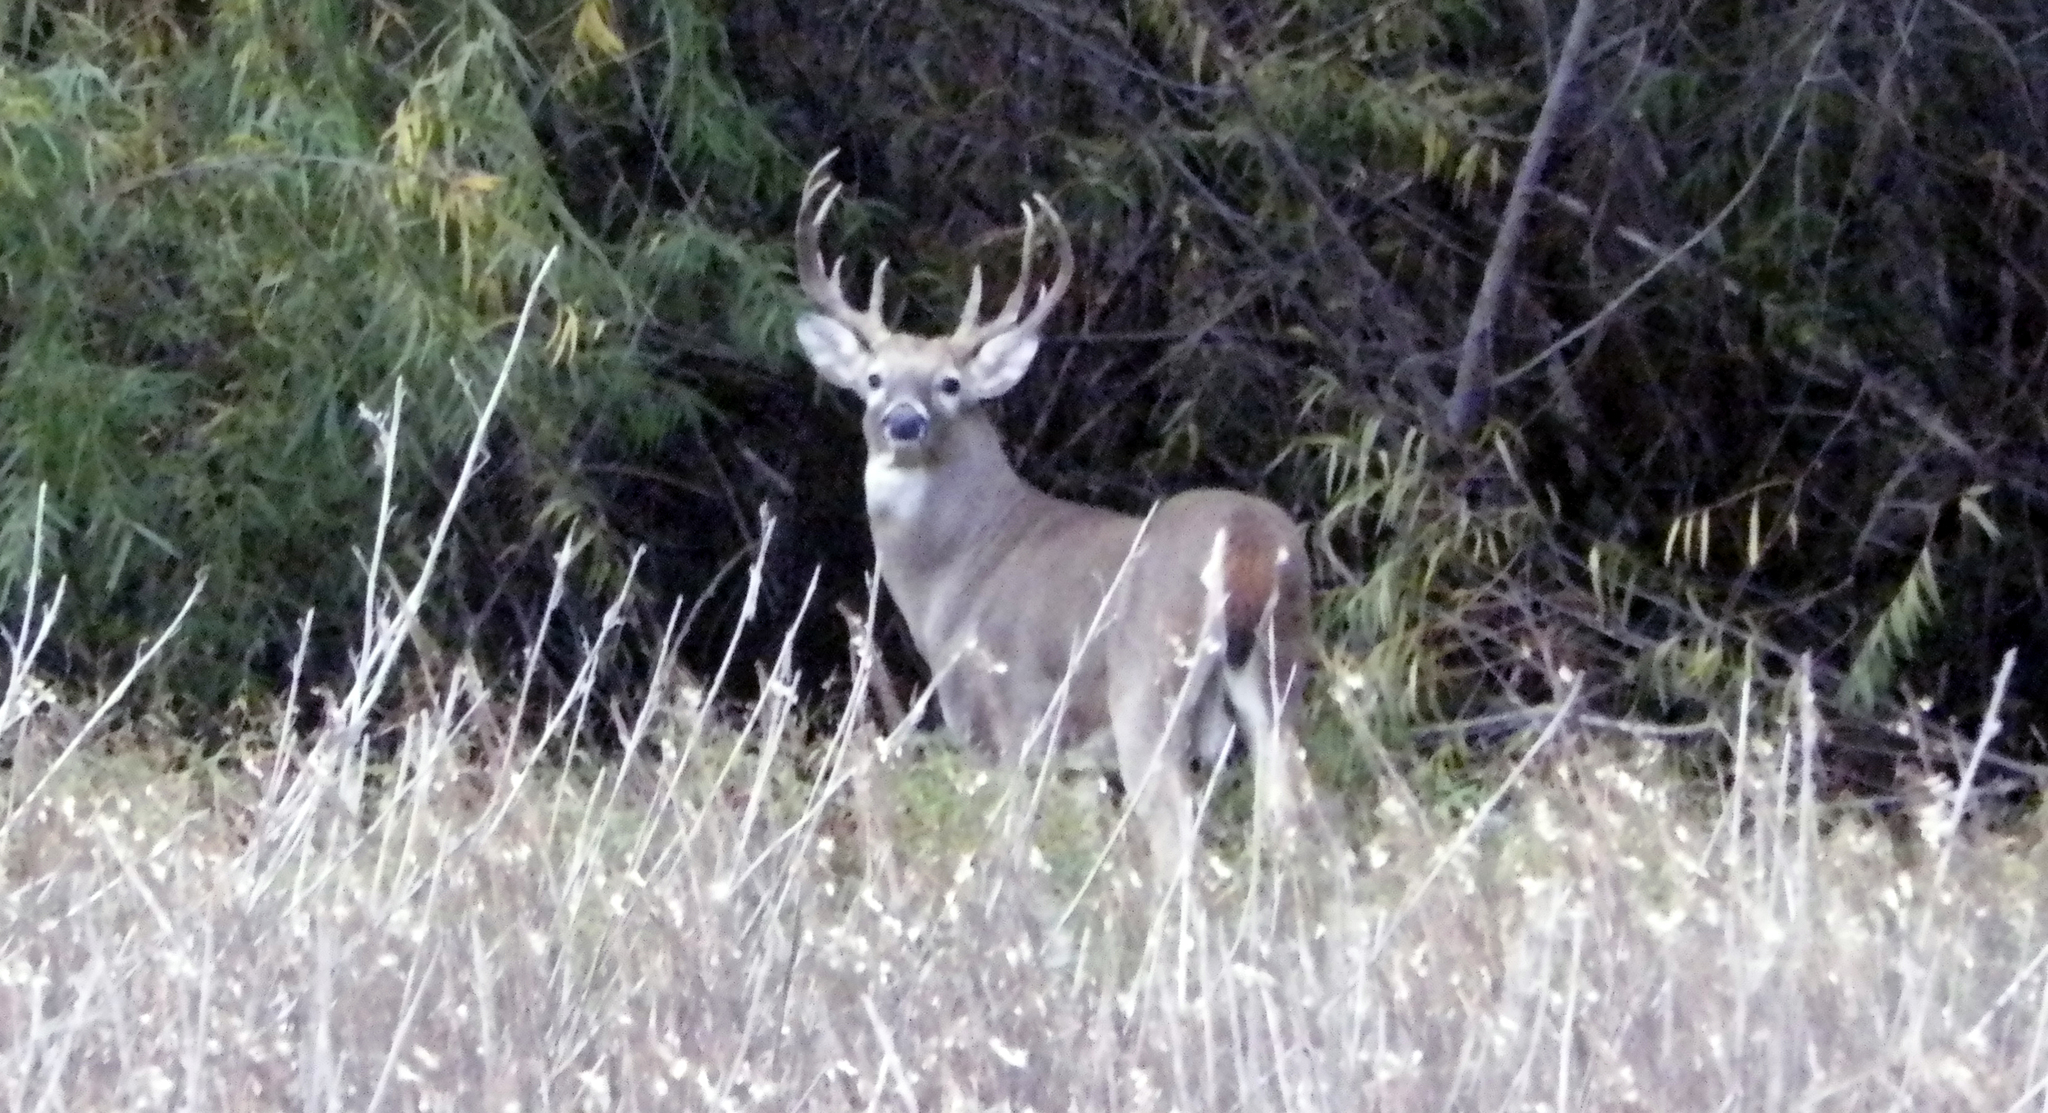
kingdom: Animalia
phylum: Chordata
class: Mammalia
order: Artiodactyla
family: Cervidae
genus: Odocoileus
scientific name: Odocoileus virginianus
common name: White-tailed deer
